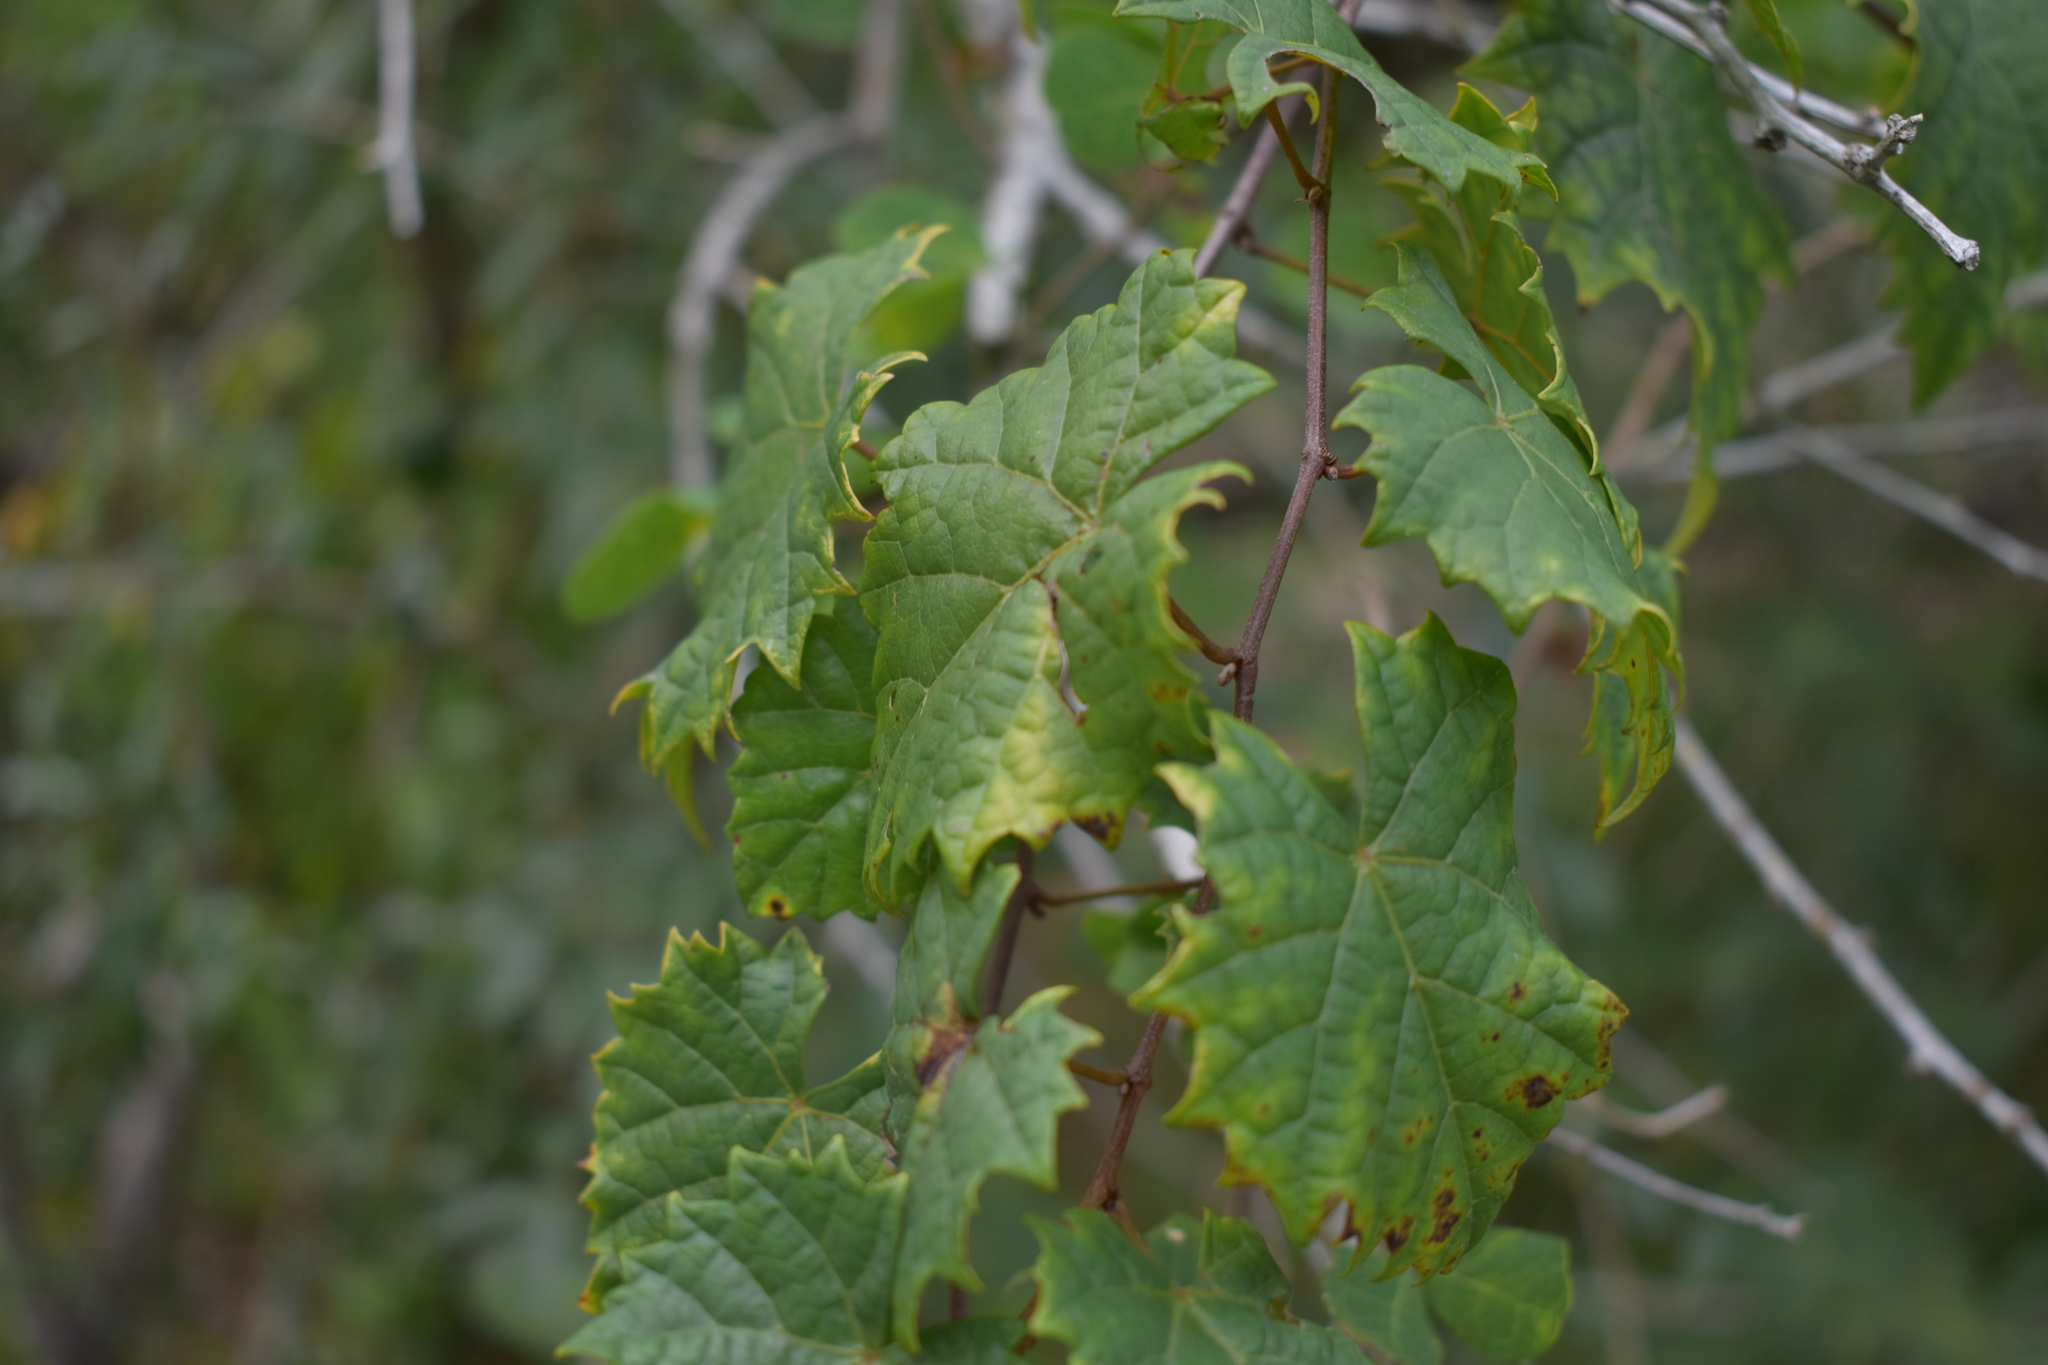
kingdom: Plantae
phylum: Tracheophyta
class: Magnoliopsida
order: Vitales
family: Vitaceae
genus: Vitis
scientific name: Vitis rotundifolia
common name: Muscadine grape
